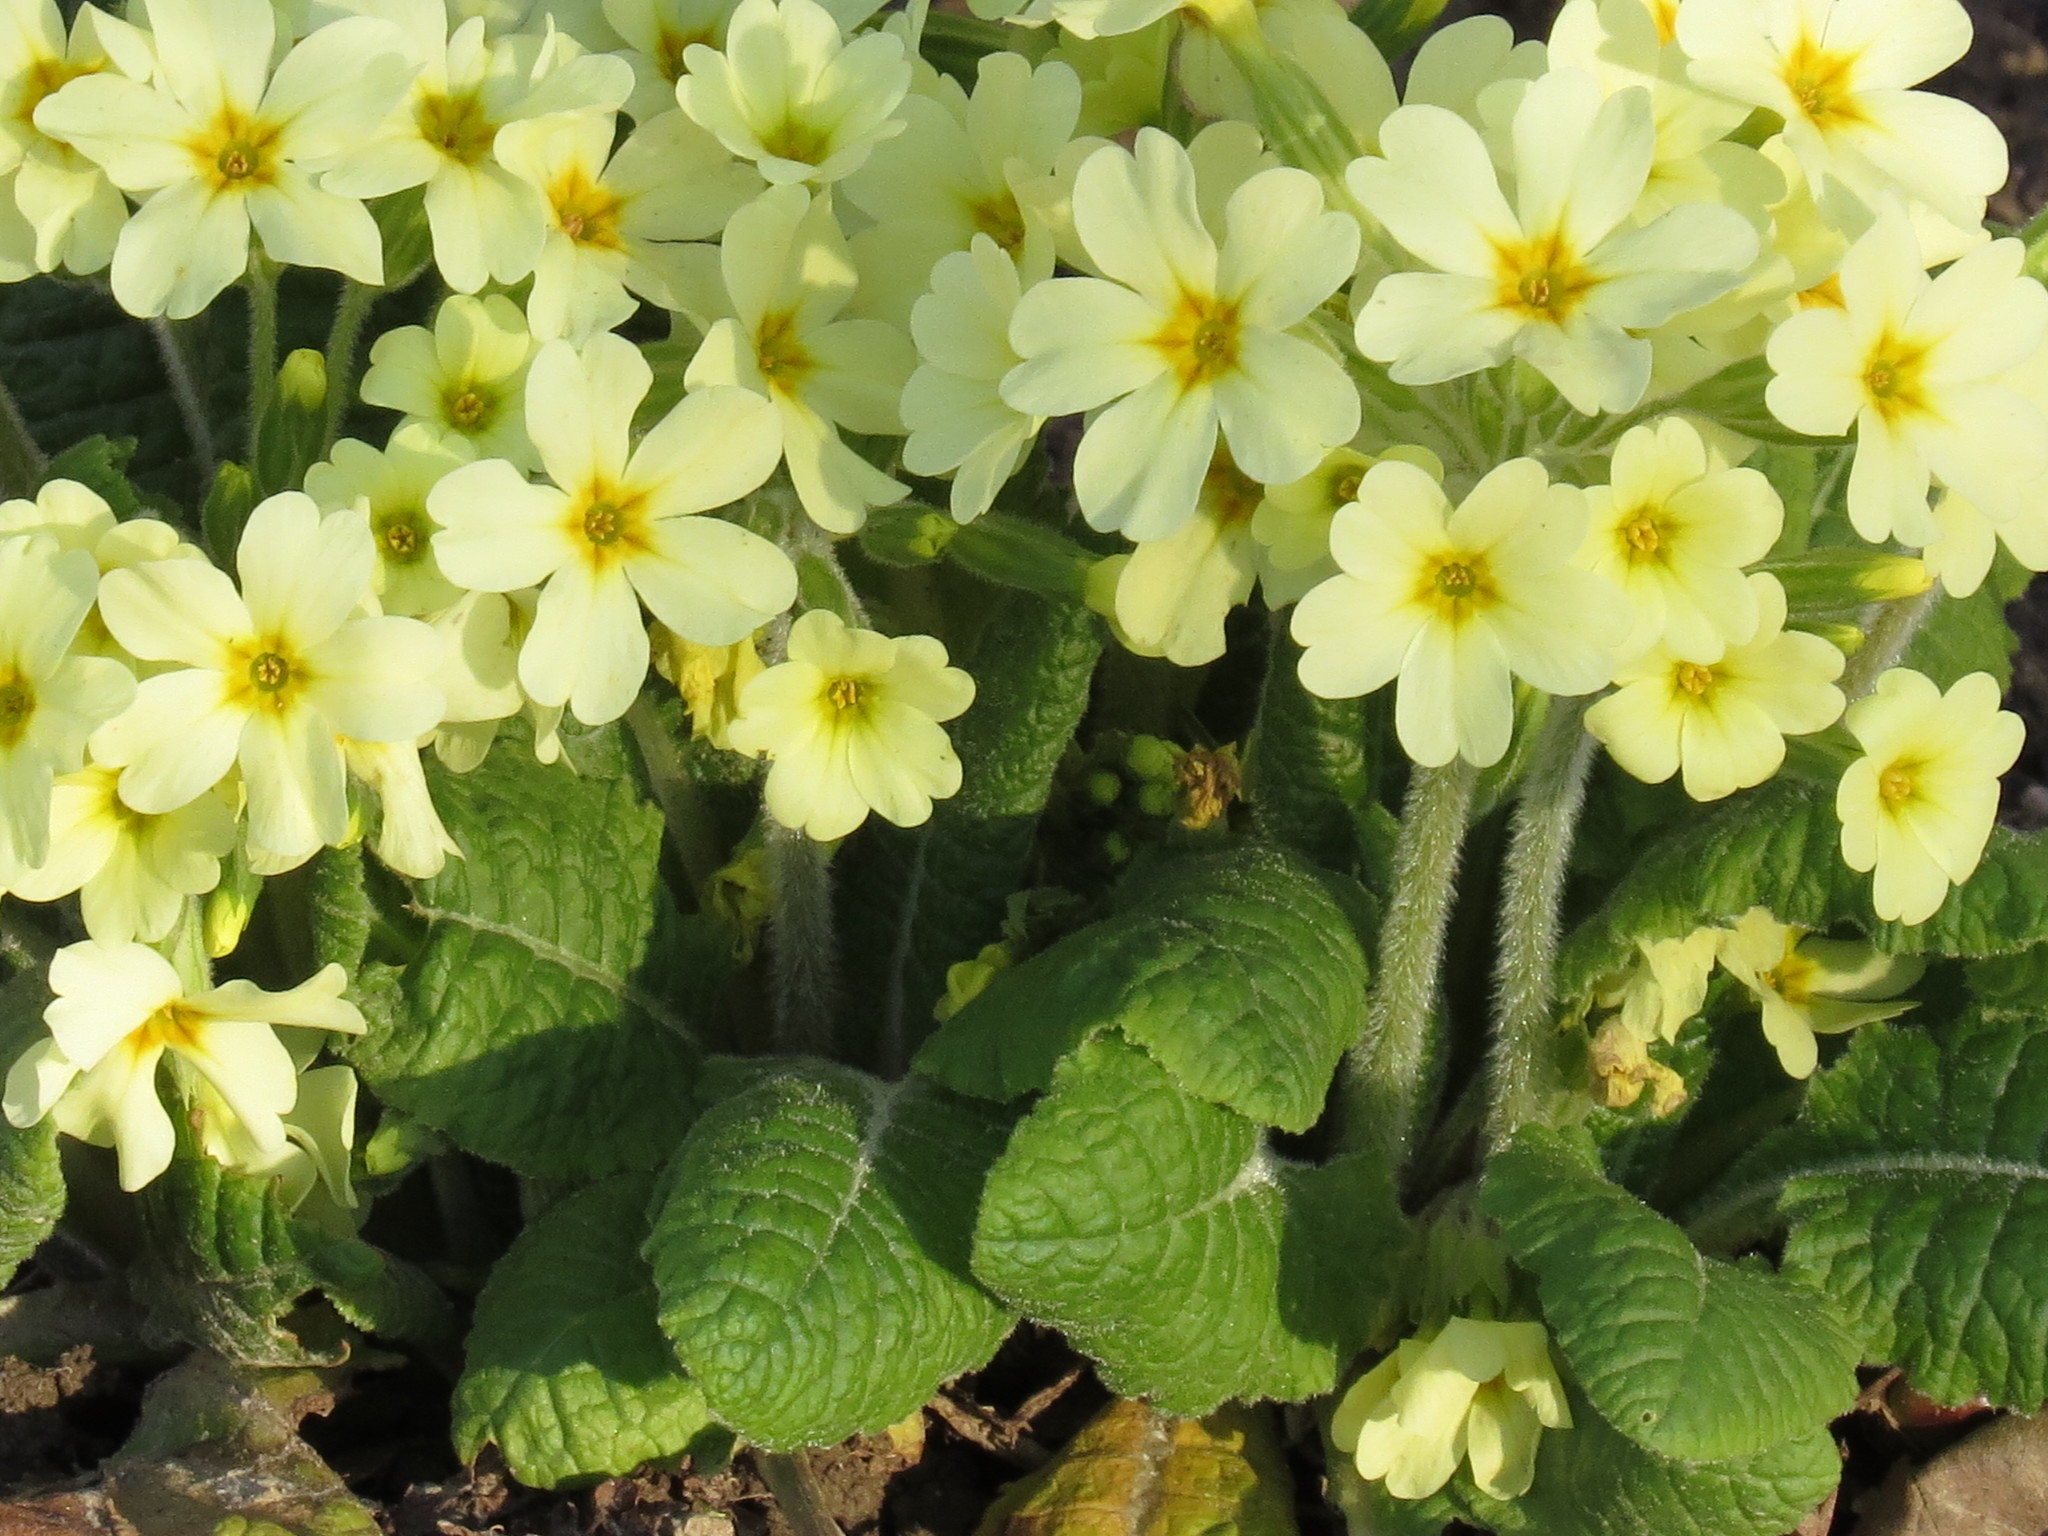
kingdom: Plantae
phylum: Tracheophyta
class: Magnoliopsida
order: Ericales
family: Primulaceae
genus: Primula
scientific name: Primula elatior
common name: Oxlip
